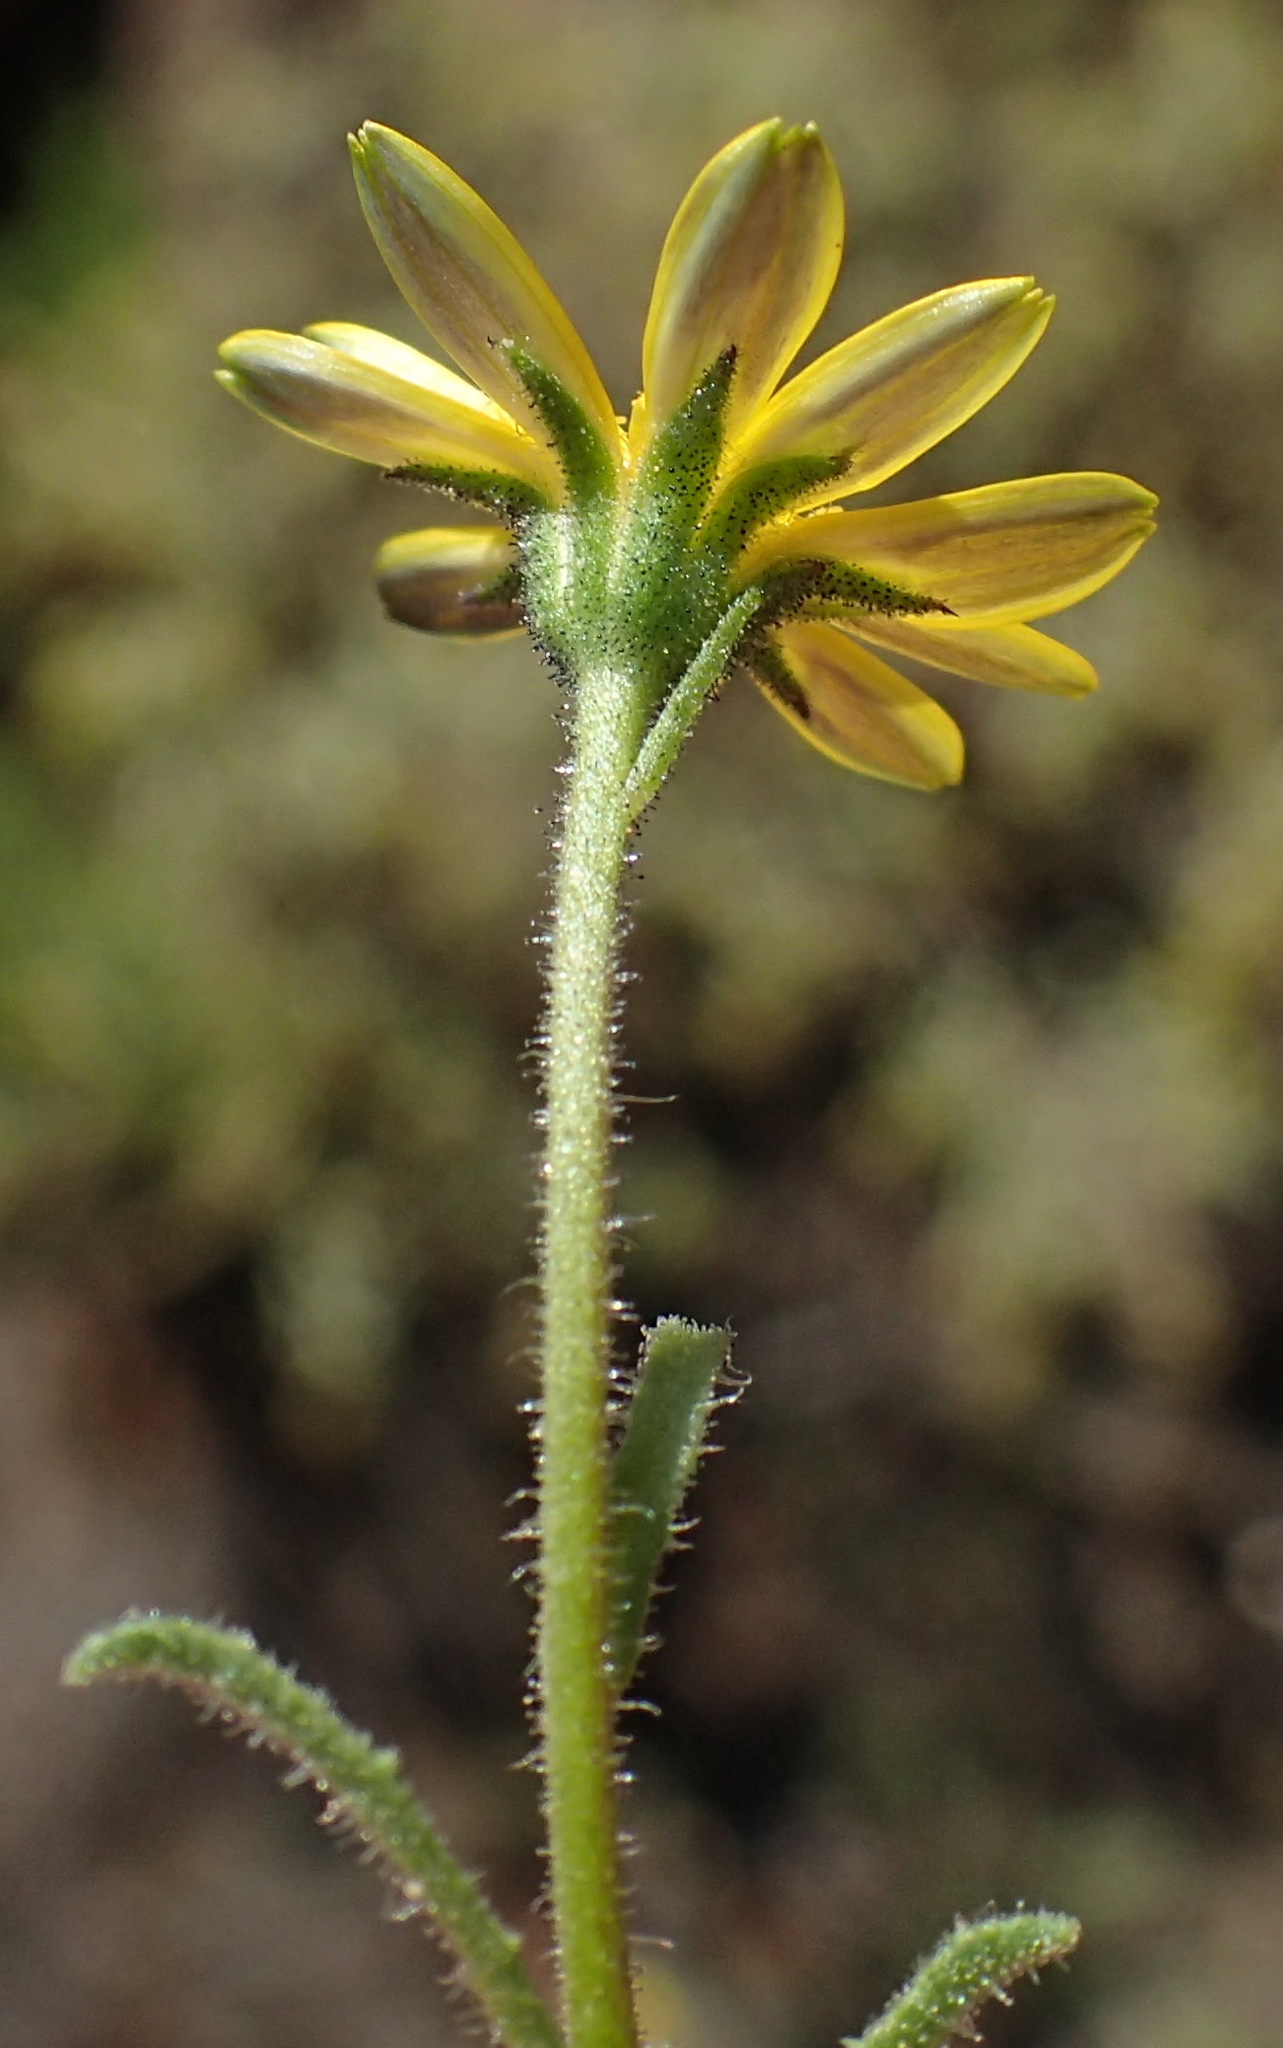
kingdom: Plantae
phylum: Tracheophyta
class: Magnoliopsida
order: Asterales
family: Asteraceae
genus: Osteospermum
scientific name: Osteospermum calendulaceum
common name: Stinking roger
